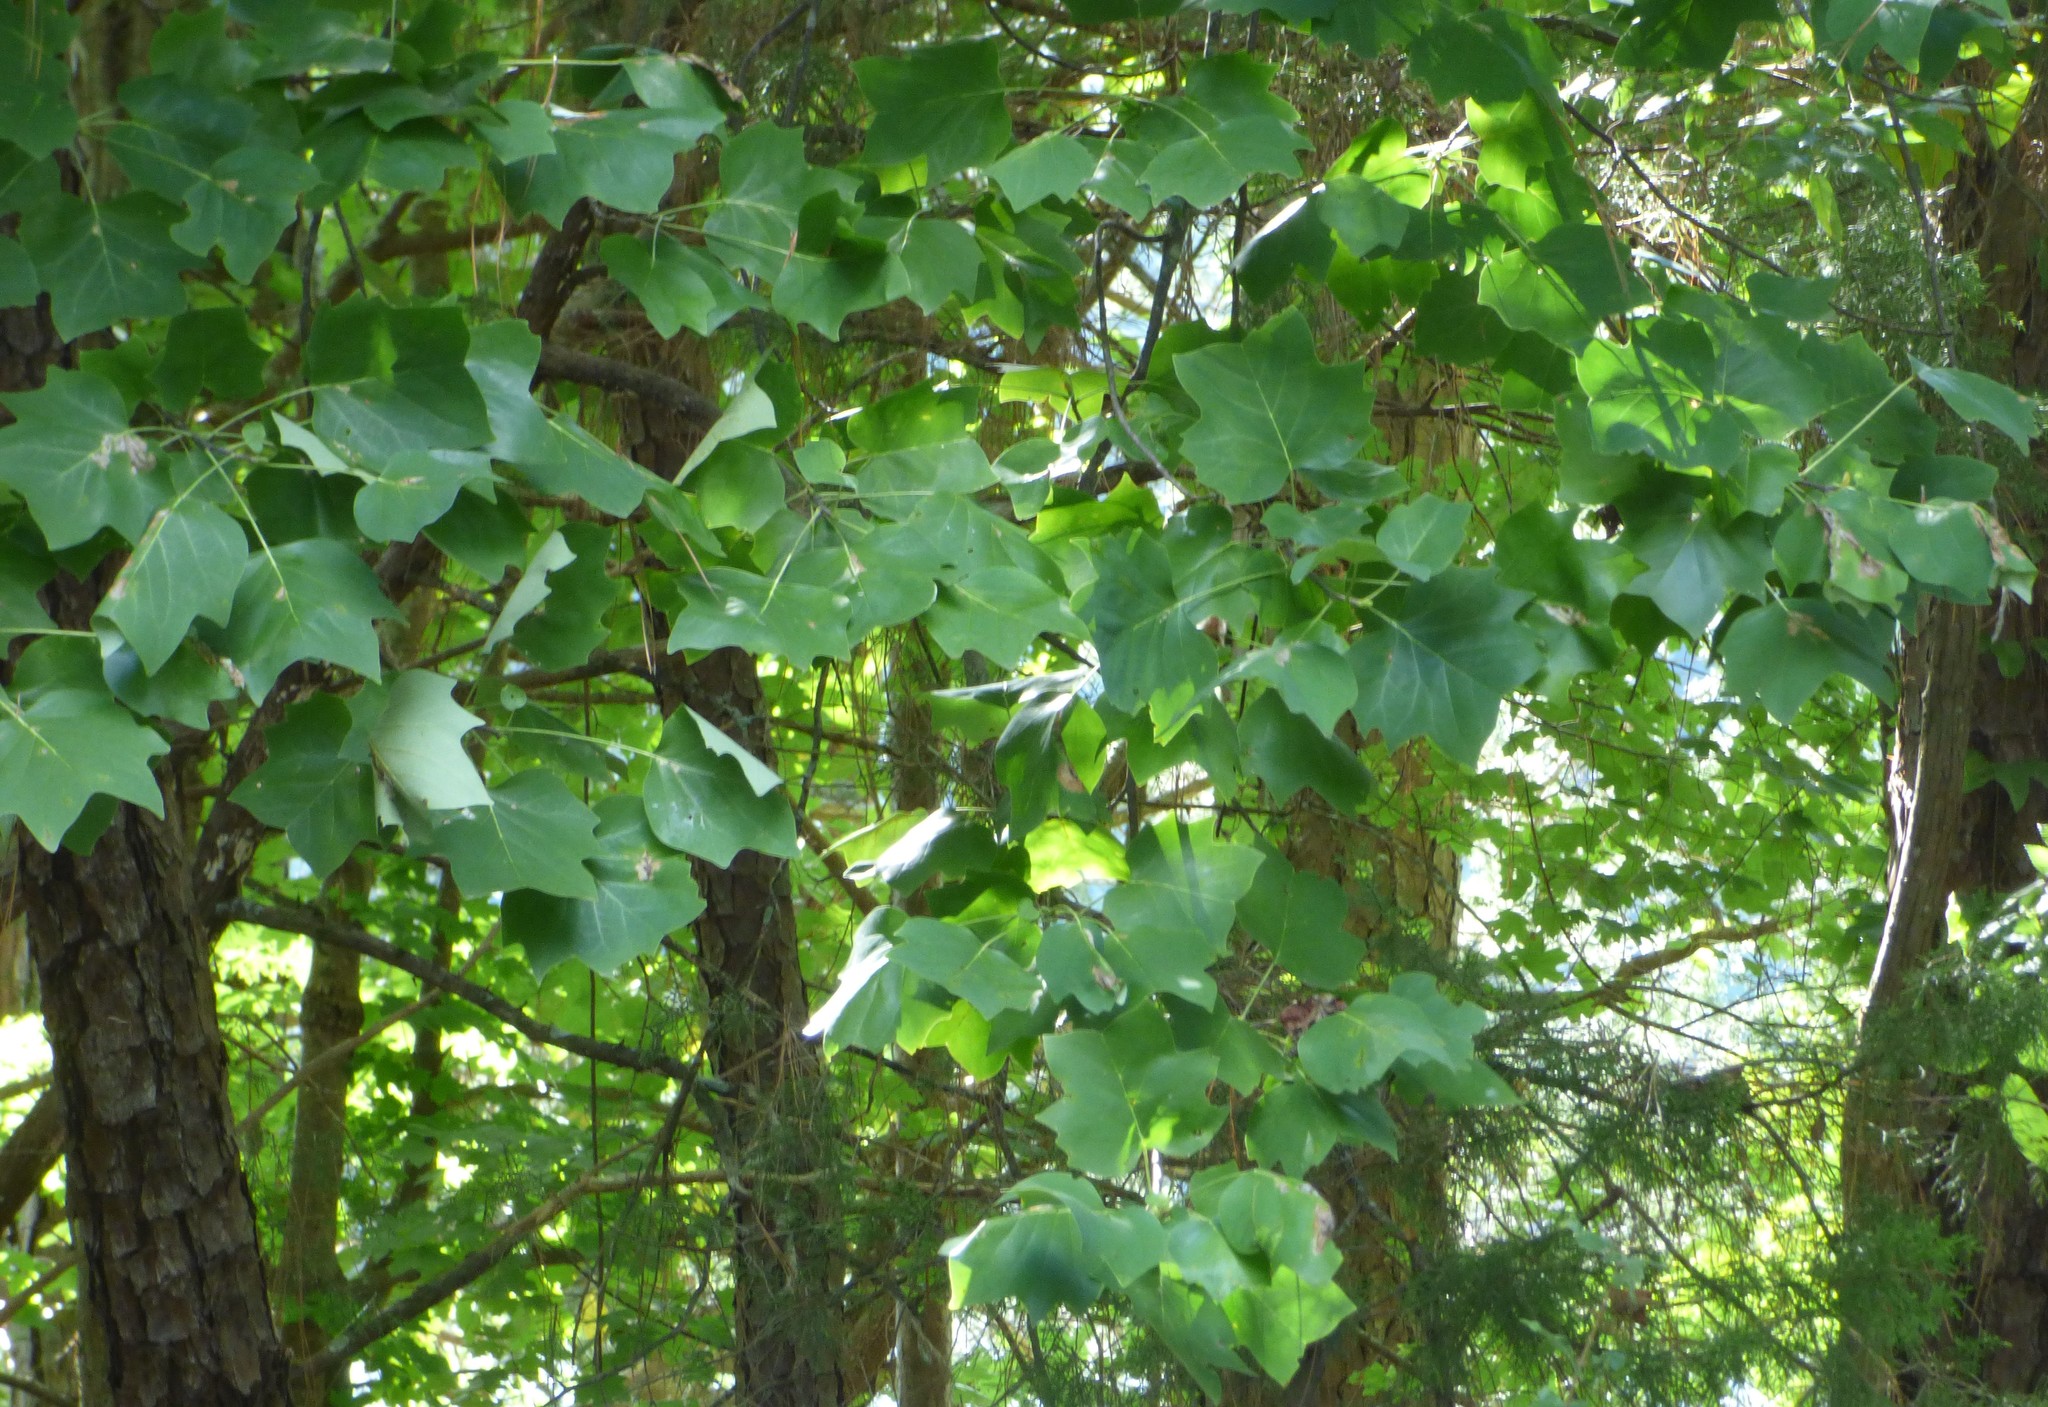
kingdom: Plantae
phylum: Tracheophyta
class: Magnoliopsida
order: Magnoliales
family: Magnoliaceae
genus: Liriodendron
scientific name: Liriodendron tulipifera
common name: Tulip tree
